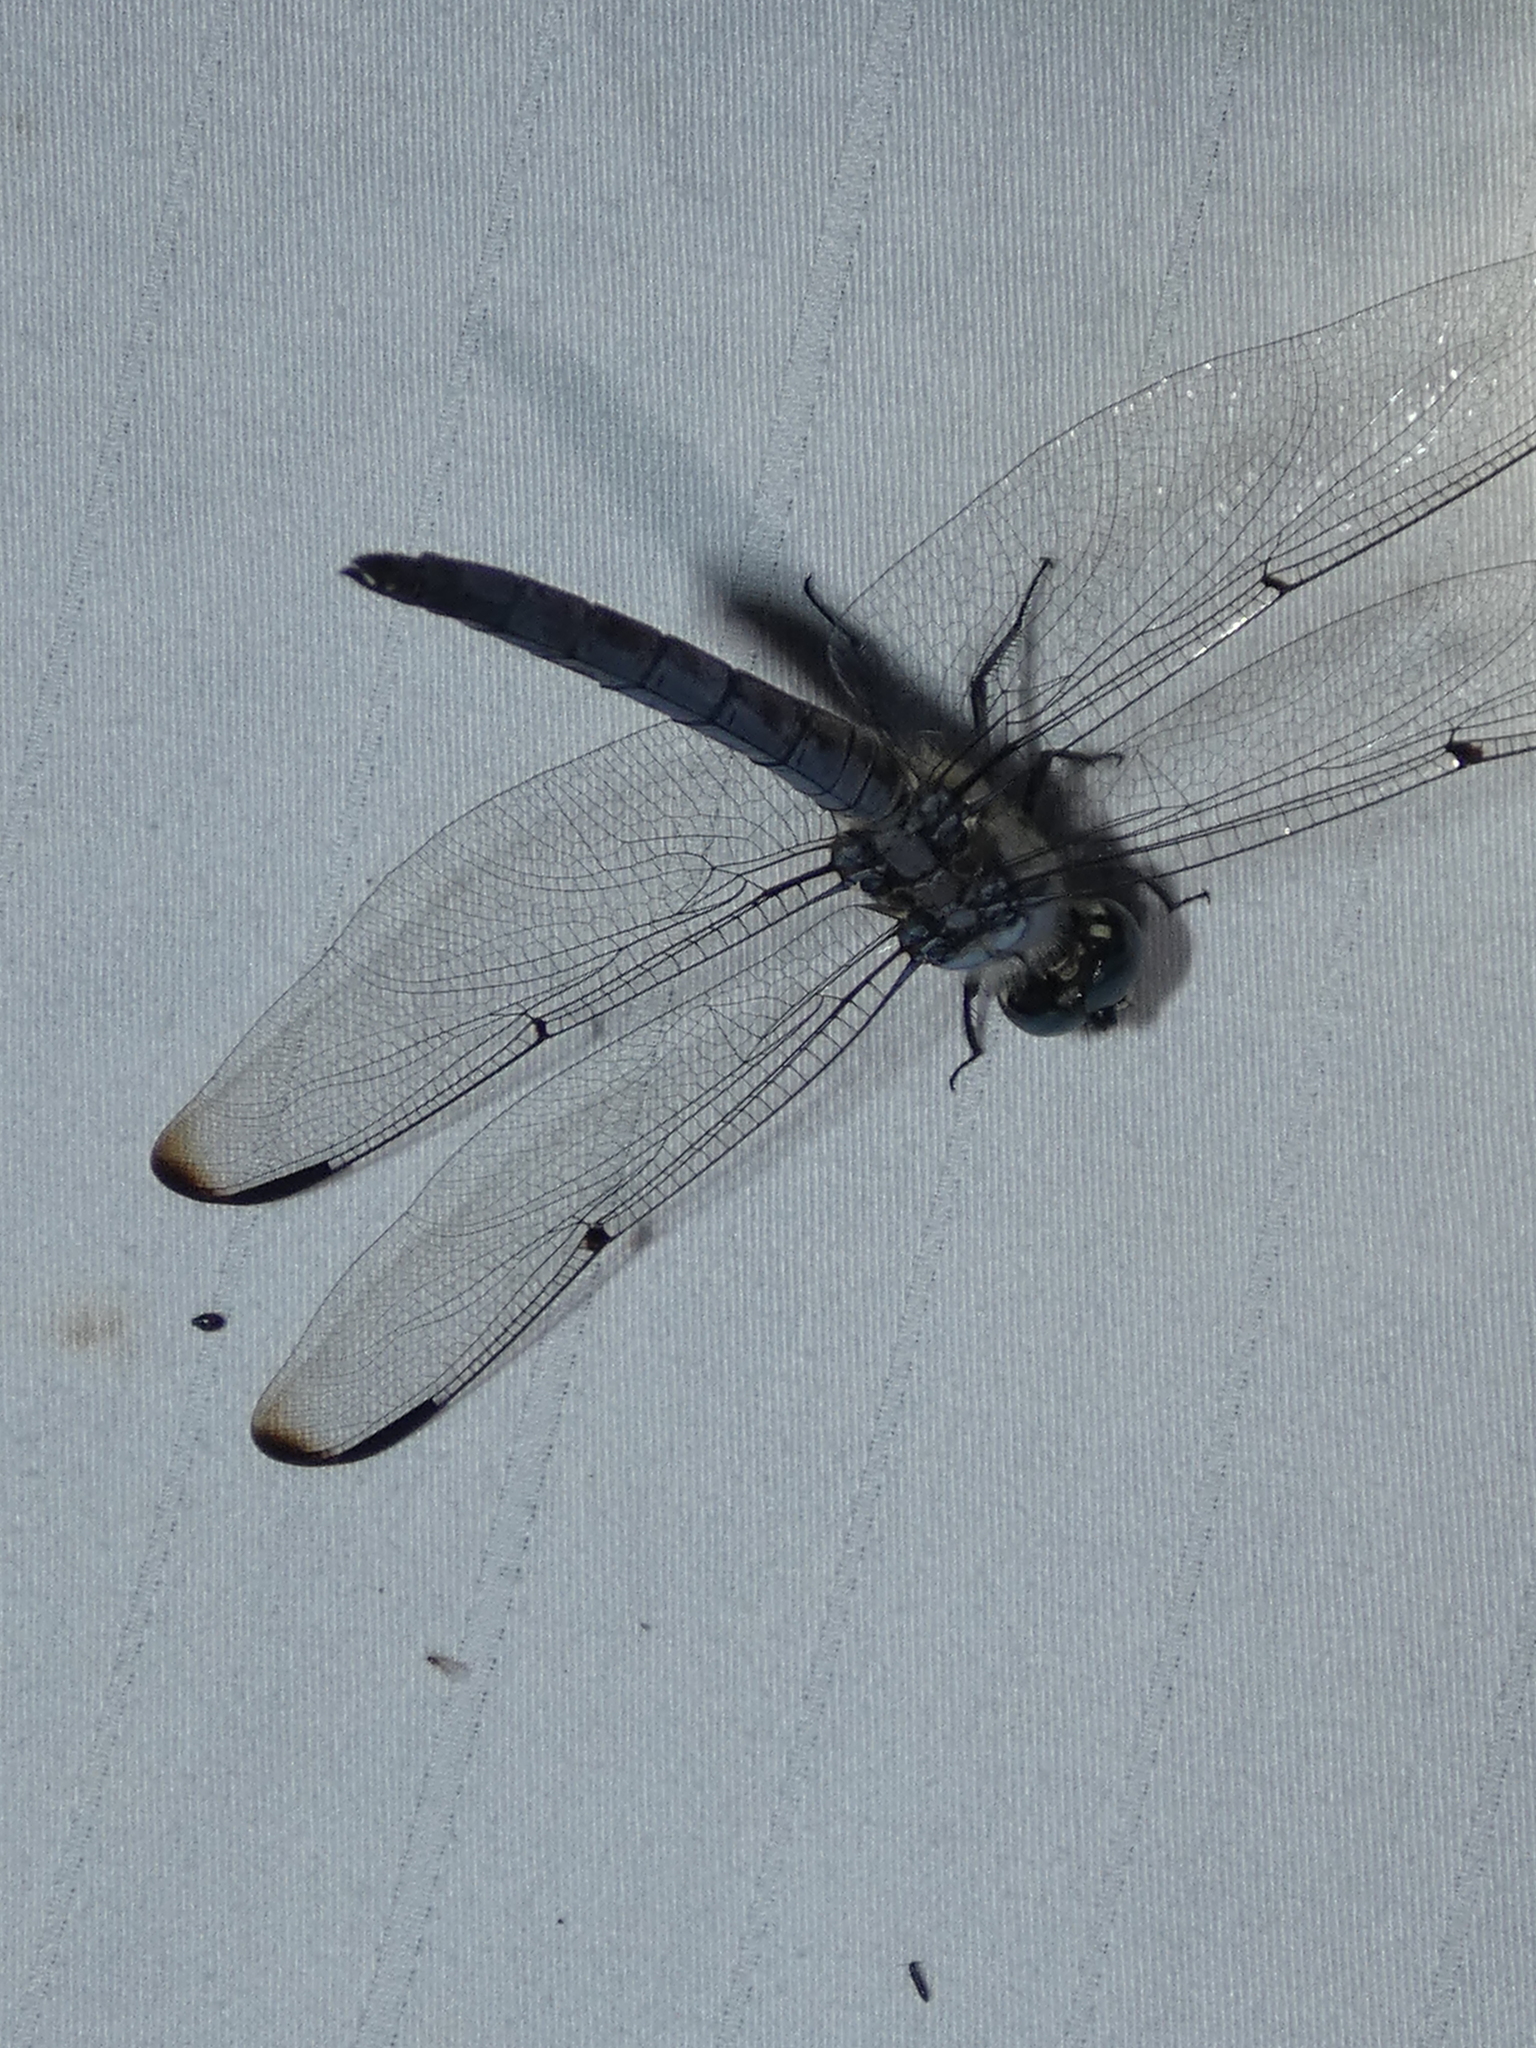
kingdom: Animalia
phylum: Arthropoda
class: Insecta
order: Odonata
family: Libellulidae
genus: Libellula
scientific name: Libellula vibrans
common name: Great blue skimmer
